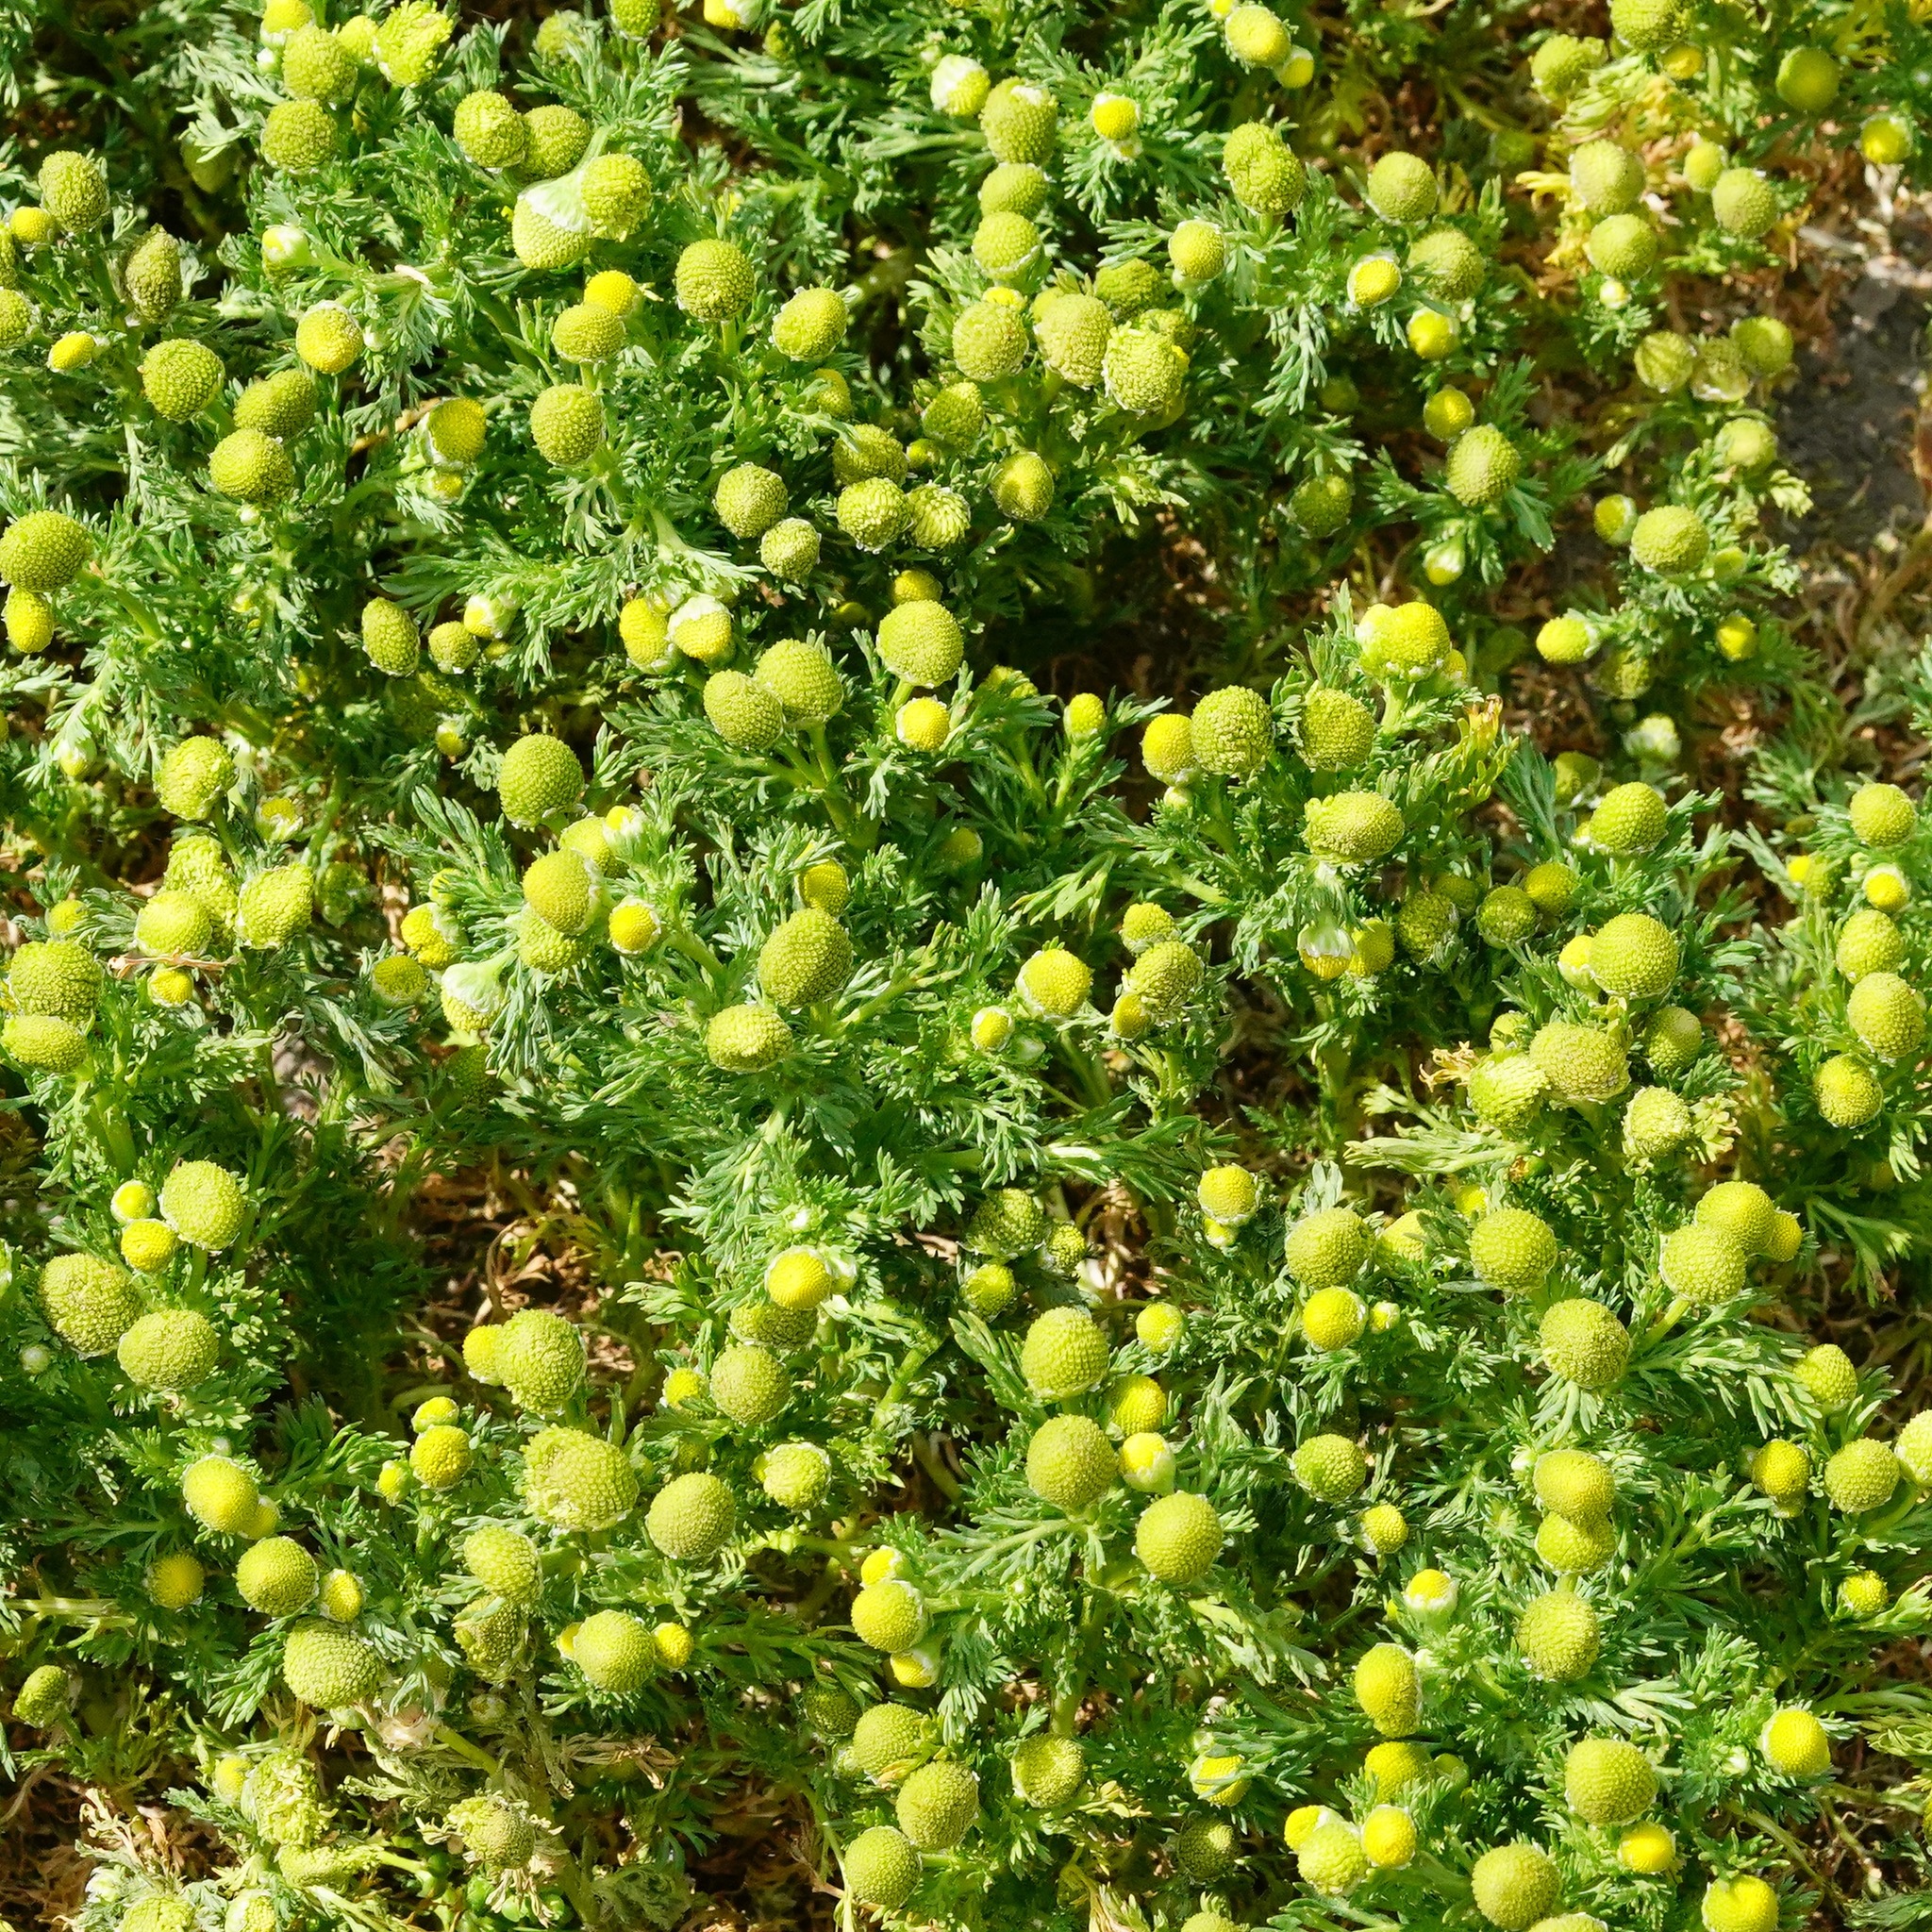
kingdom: Plantae
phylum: Tracheophyta
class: Magnoliopsida
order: Asterales
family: Asteraceae
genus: Matricaria
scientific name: Matricaria discoidea
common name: Disc mayweed
